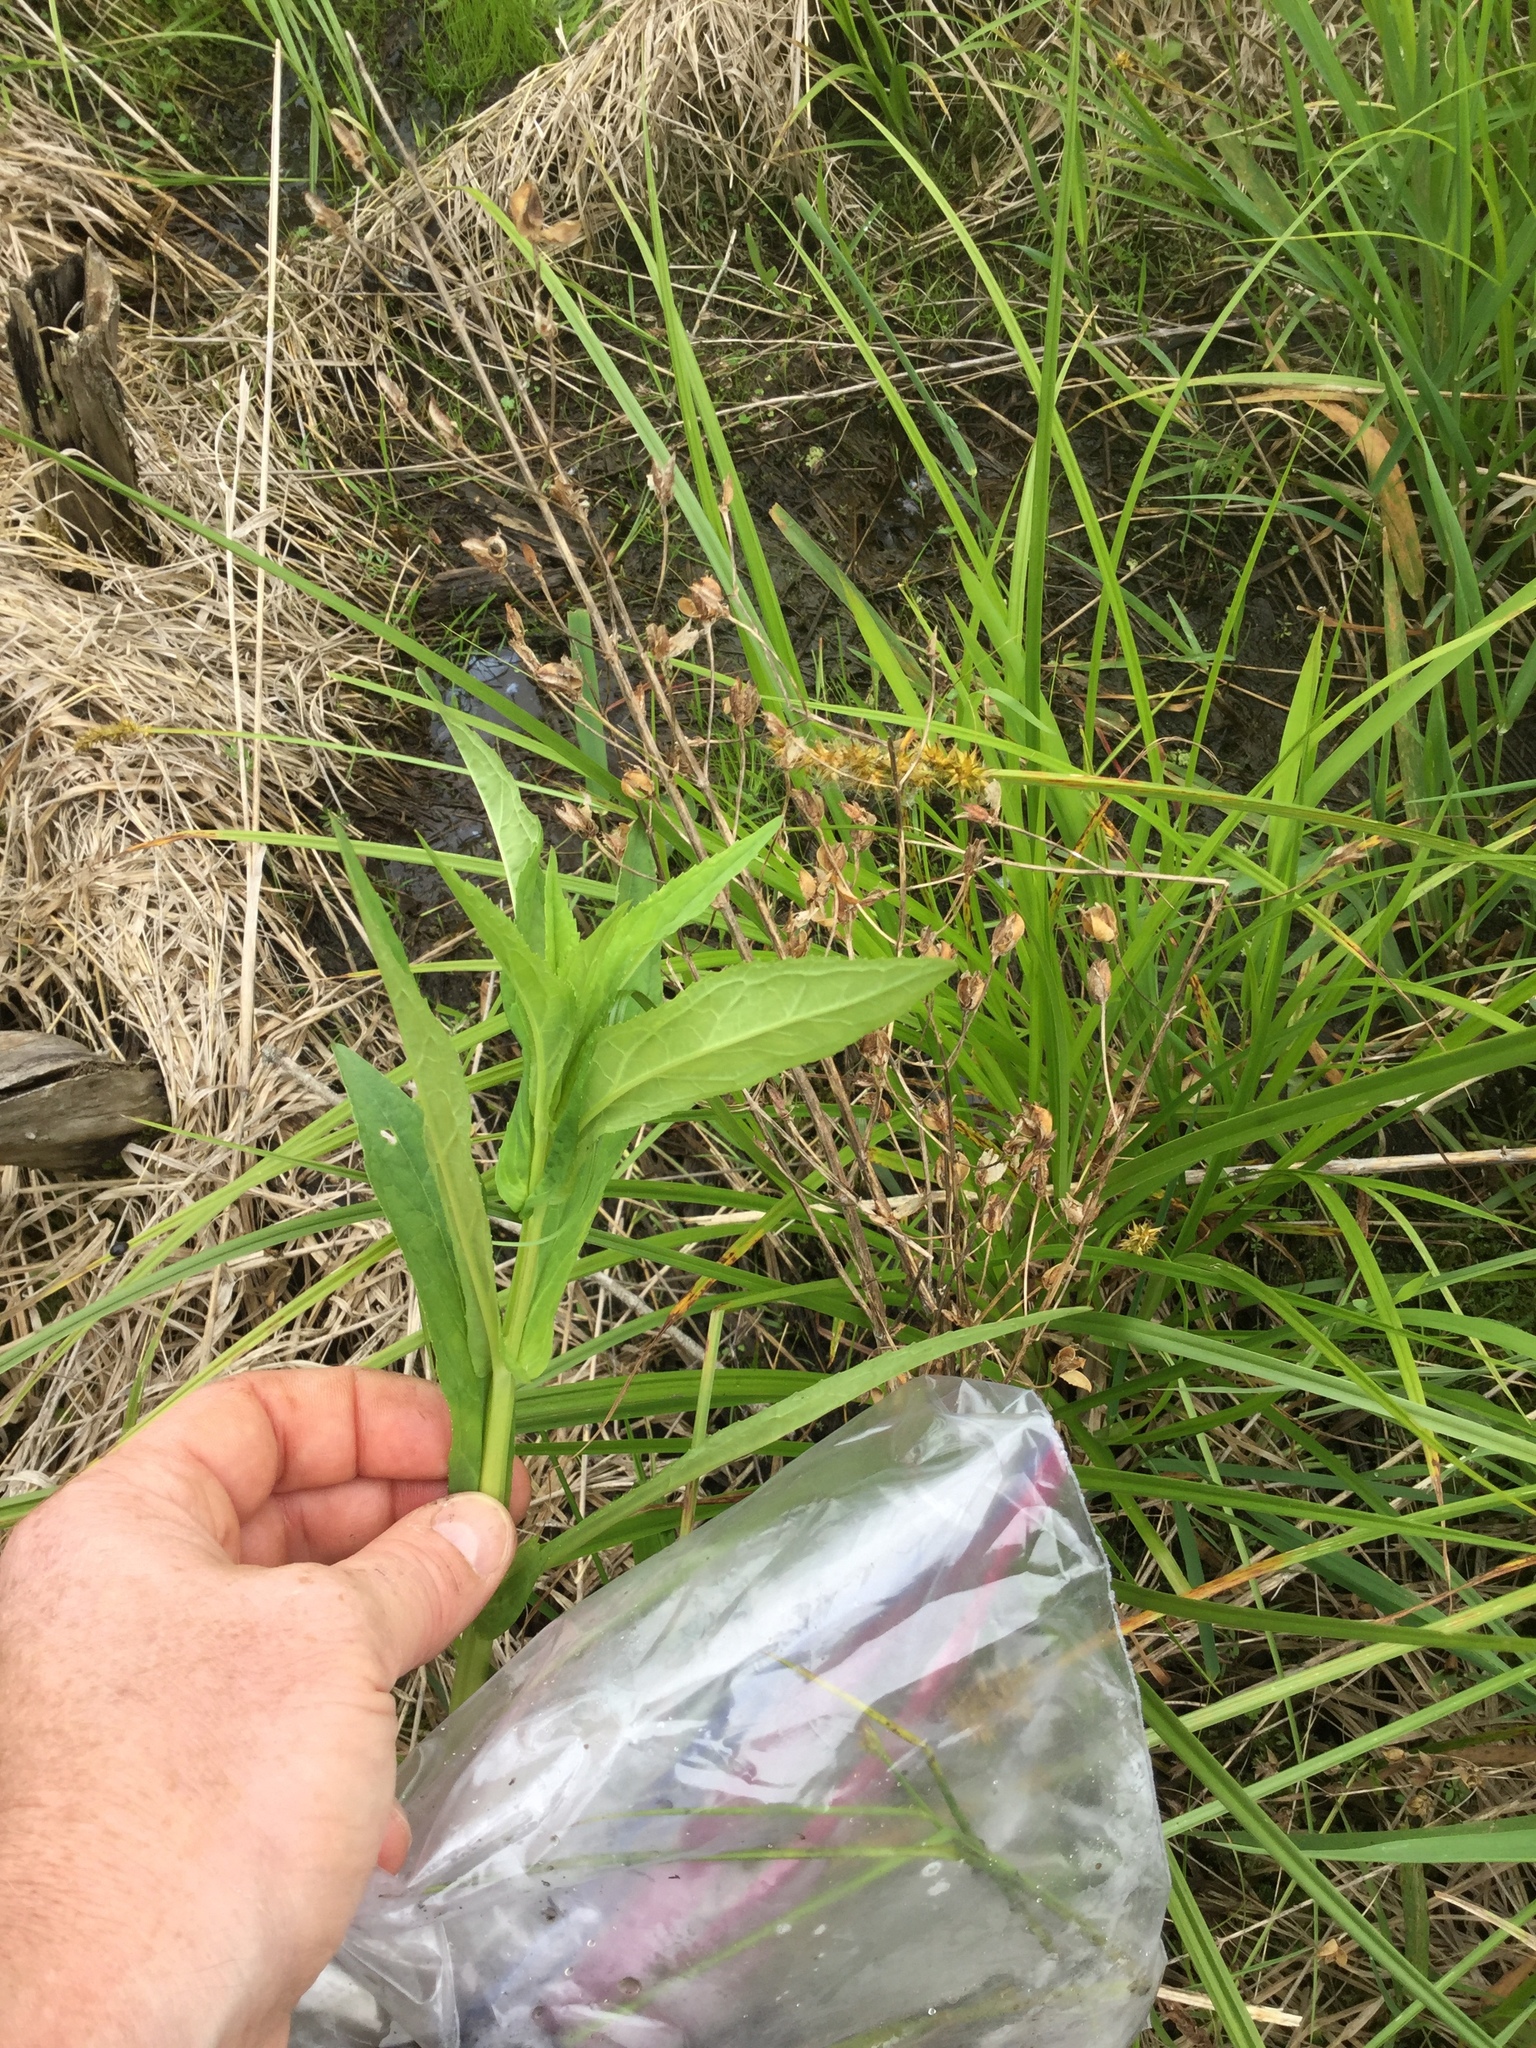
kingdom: Plantae
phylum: Tracheophyta
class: Magnoliopsida
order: Lamiales
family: Phrymaceae
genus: Mimulus
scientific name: Mimulus ringens
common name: Allegheny monkeyflower
